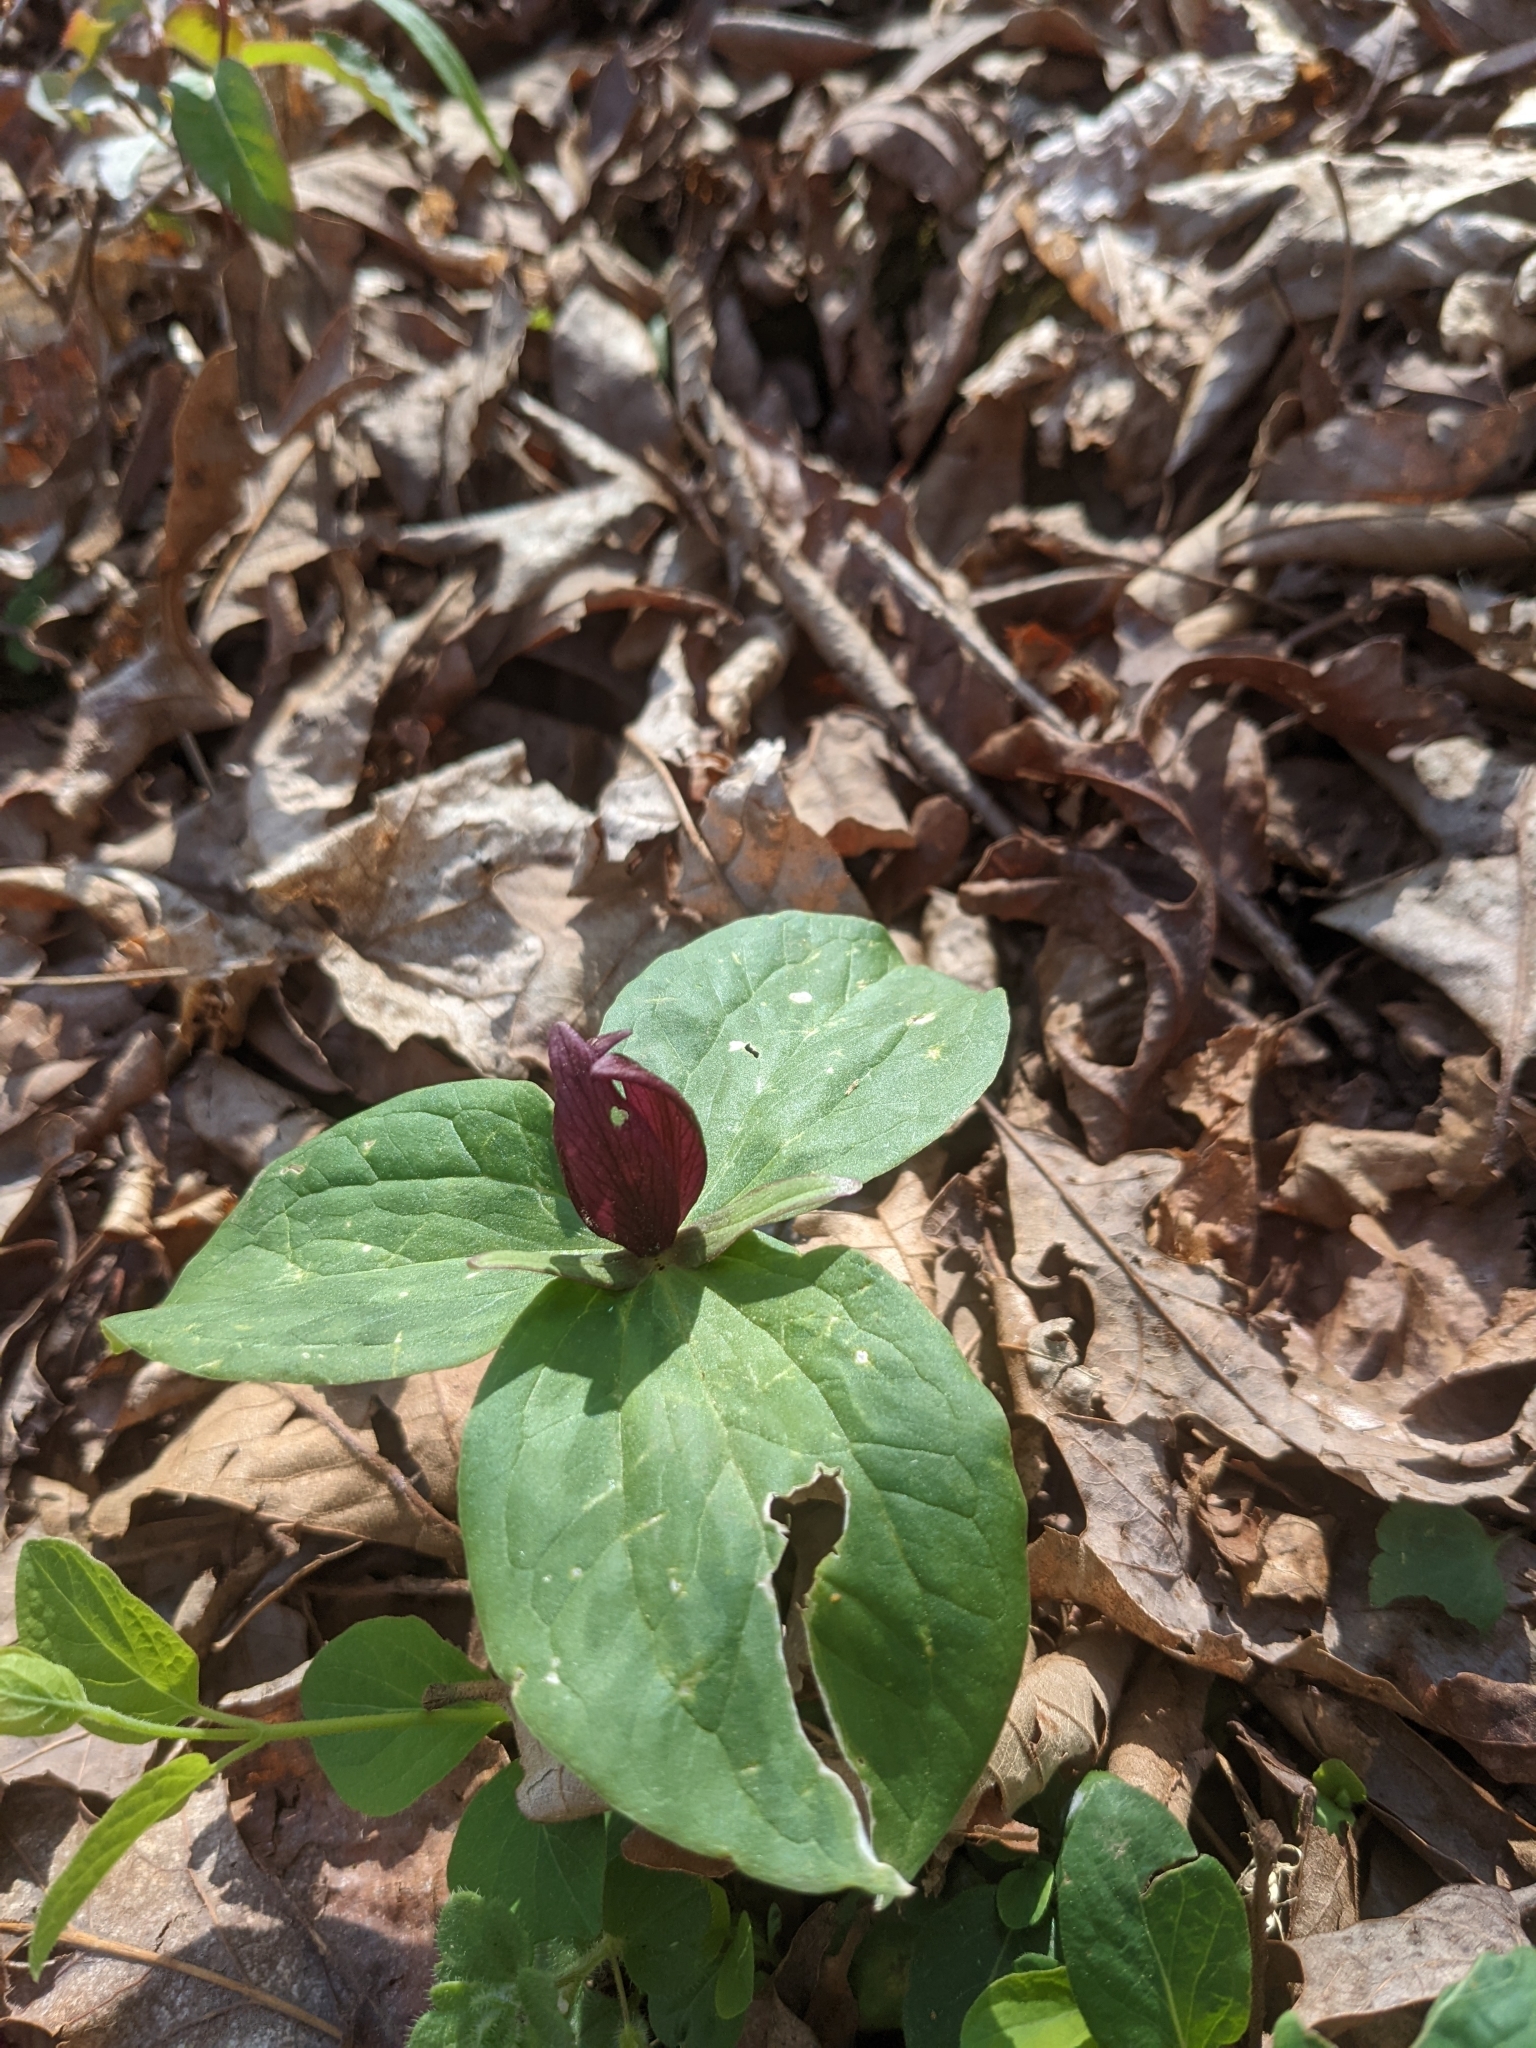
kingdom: Plantae
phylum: Tracheophyta
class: Liliopsida
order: Liliales
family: Melanthiaceae
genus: Trillium
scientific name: Trillium sessile
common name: Sessile trillium
